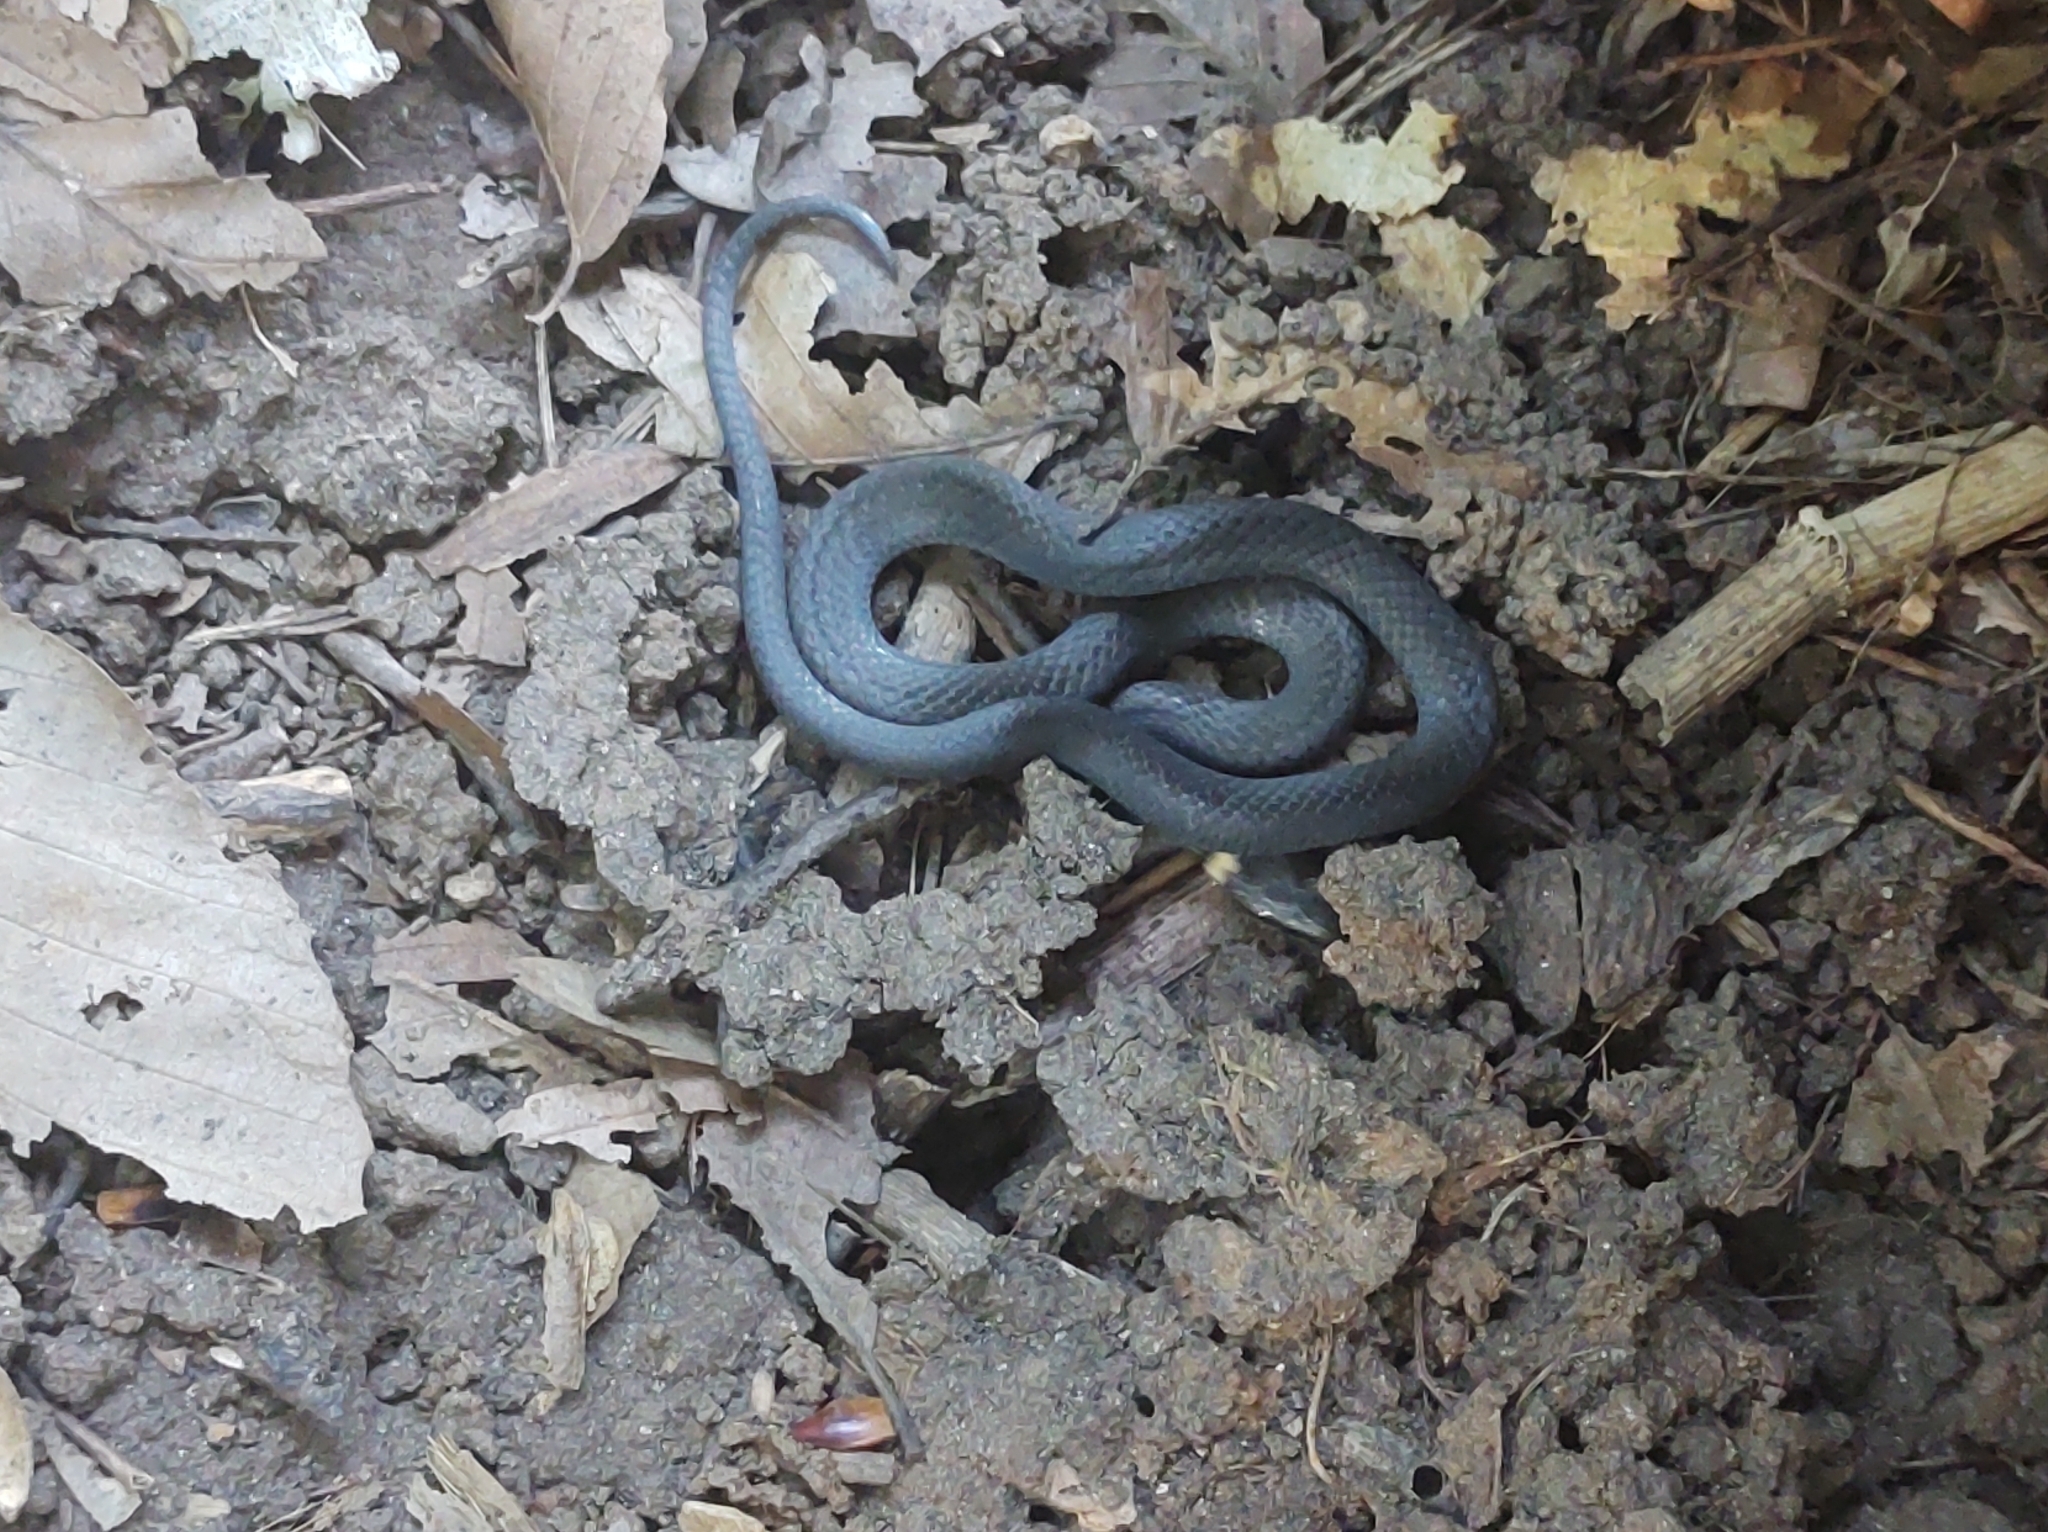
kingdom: Animalia
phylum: Chordata
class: Squamata
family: Colubridae
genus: Diadophis
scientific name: Diadophis punctatus
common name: Ringneck snake
